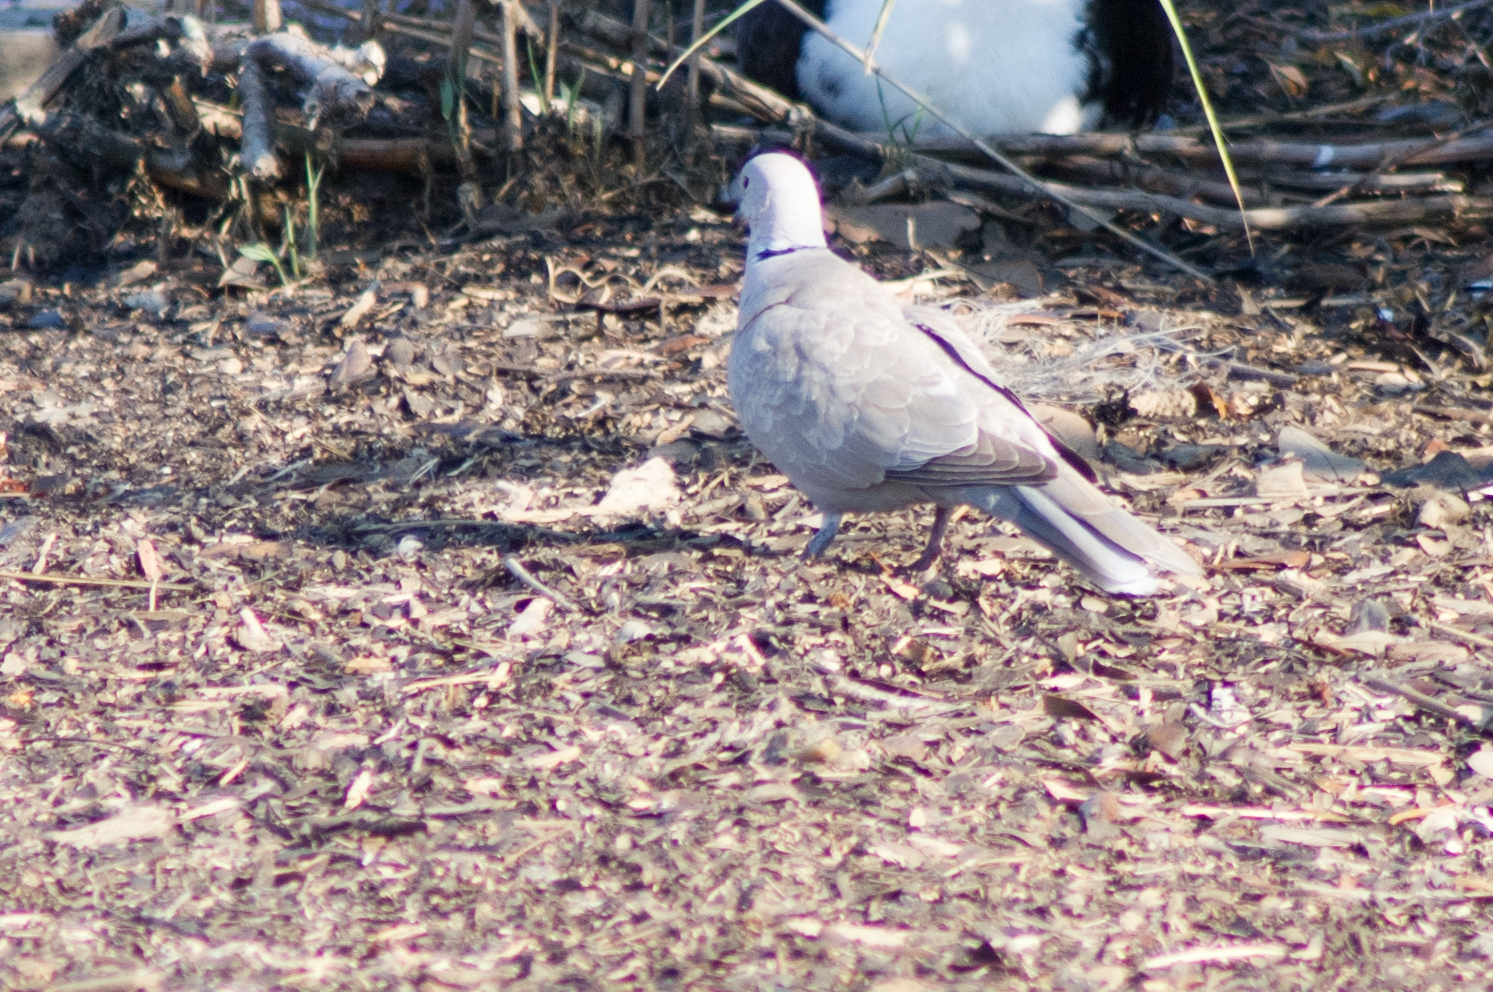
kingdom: Animalia
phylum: Chordata
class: Aves
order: Columbiformes
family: Columbidae
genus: Streptopelia
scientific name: Streptopelia decaocto
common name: Eurasian collared dove
